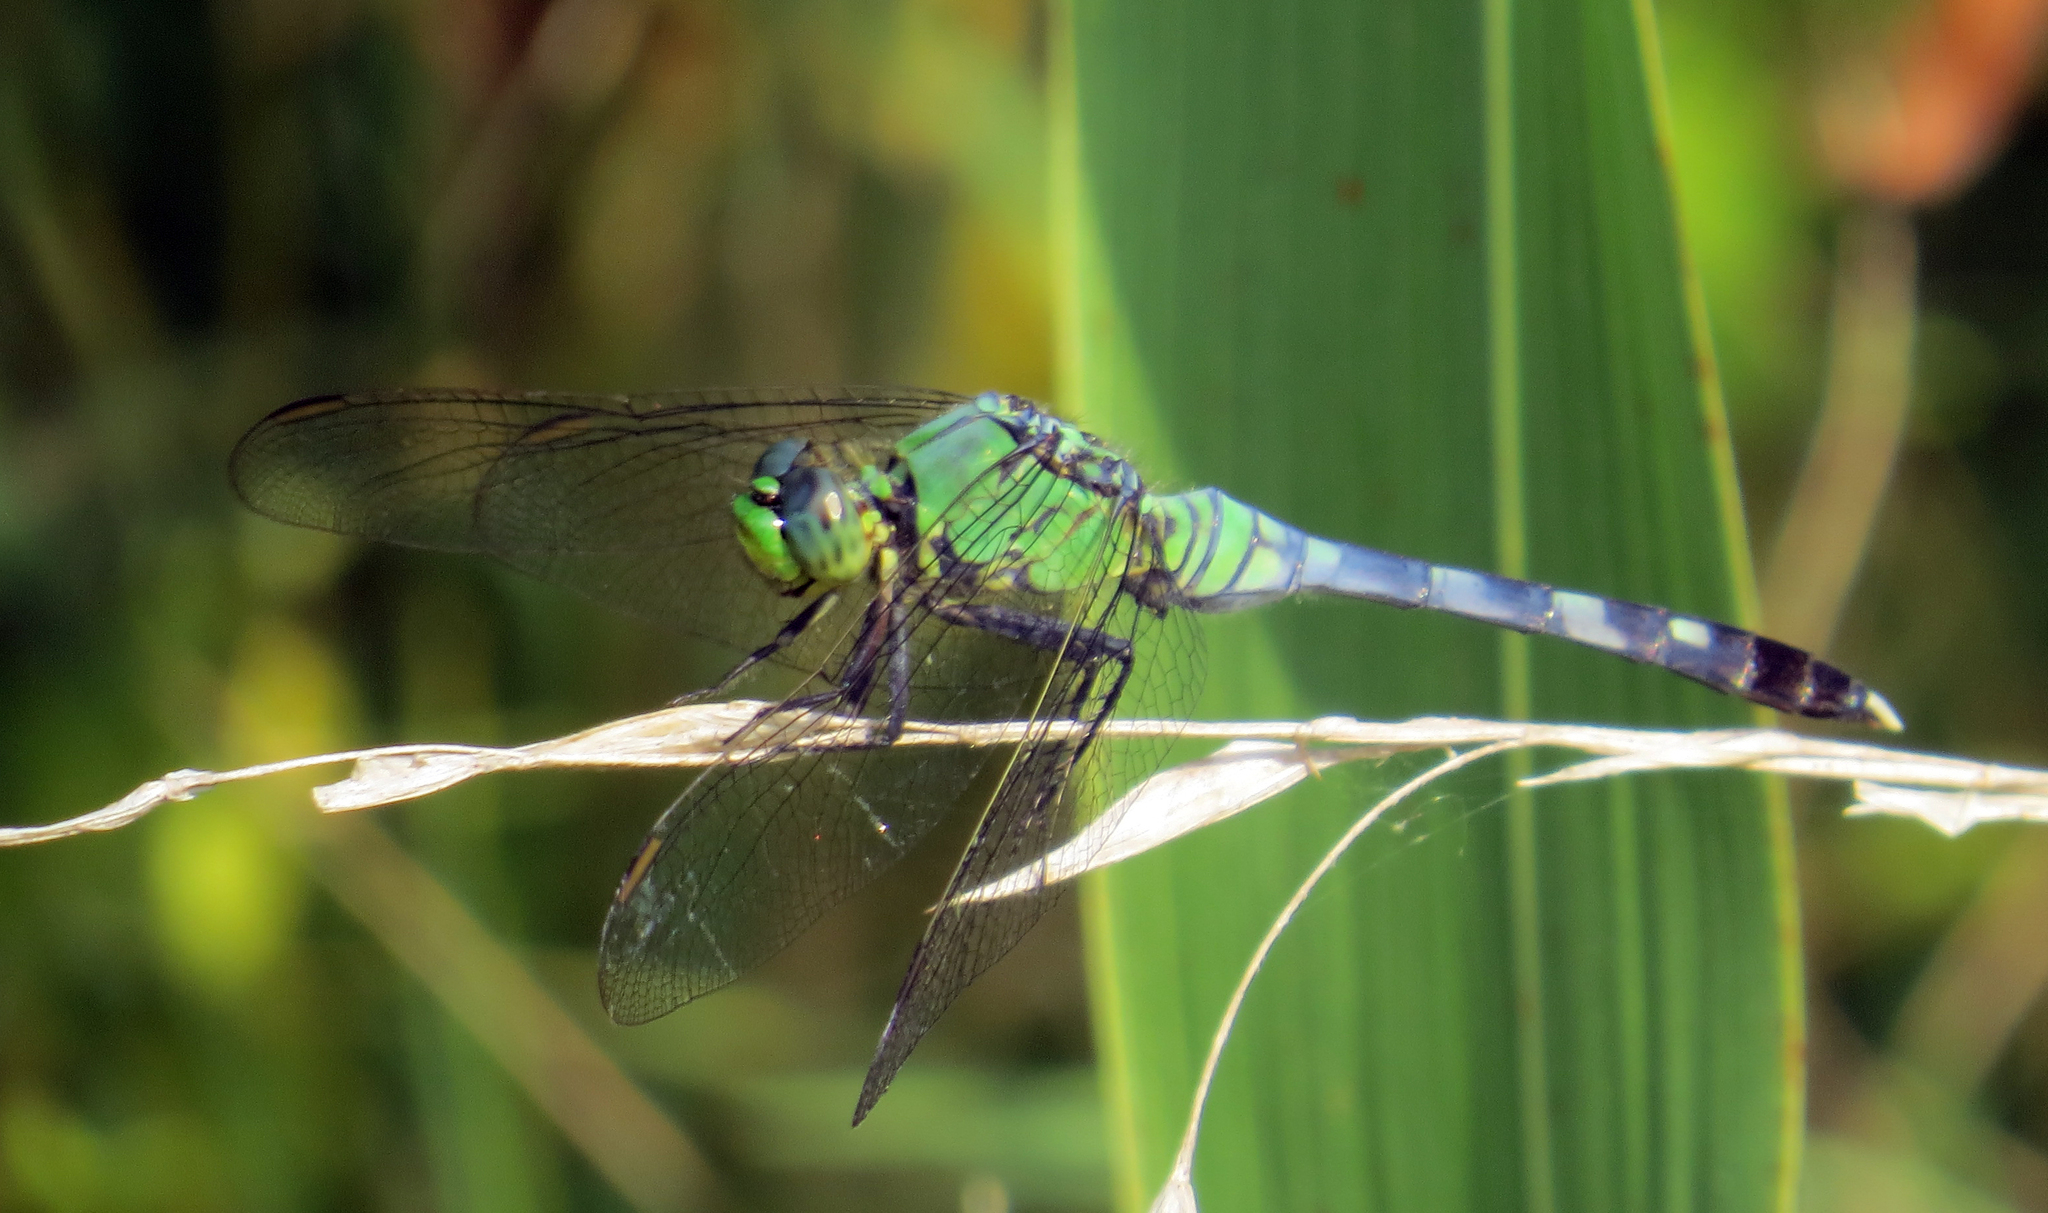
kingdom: Animalia
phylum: Arthropoda
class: Insecta
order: Odonata
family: Libellulidae
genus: Erythemis
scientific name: Erythemis simplicicollis
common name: Eastern pondhawk
